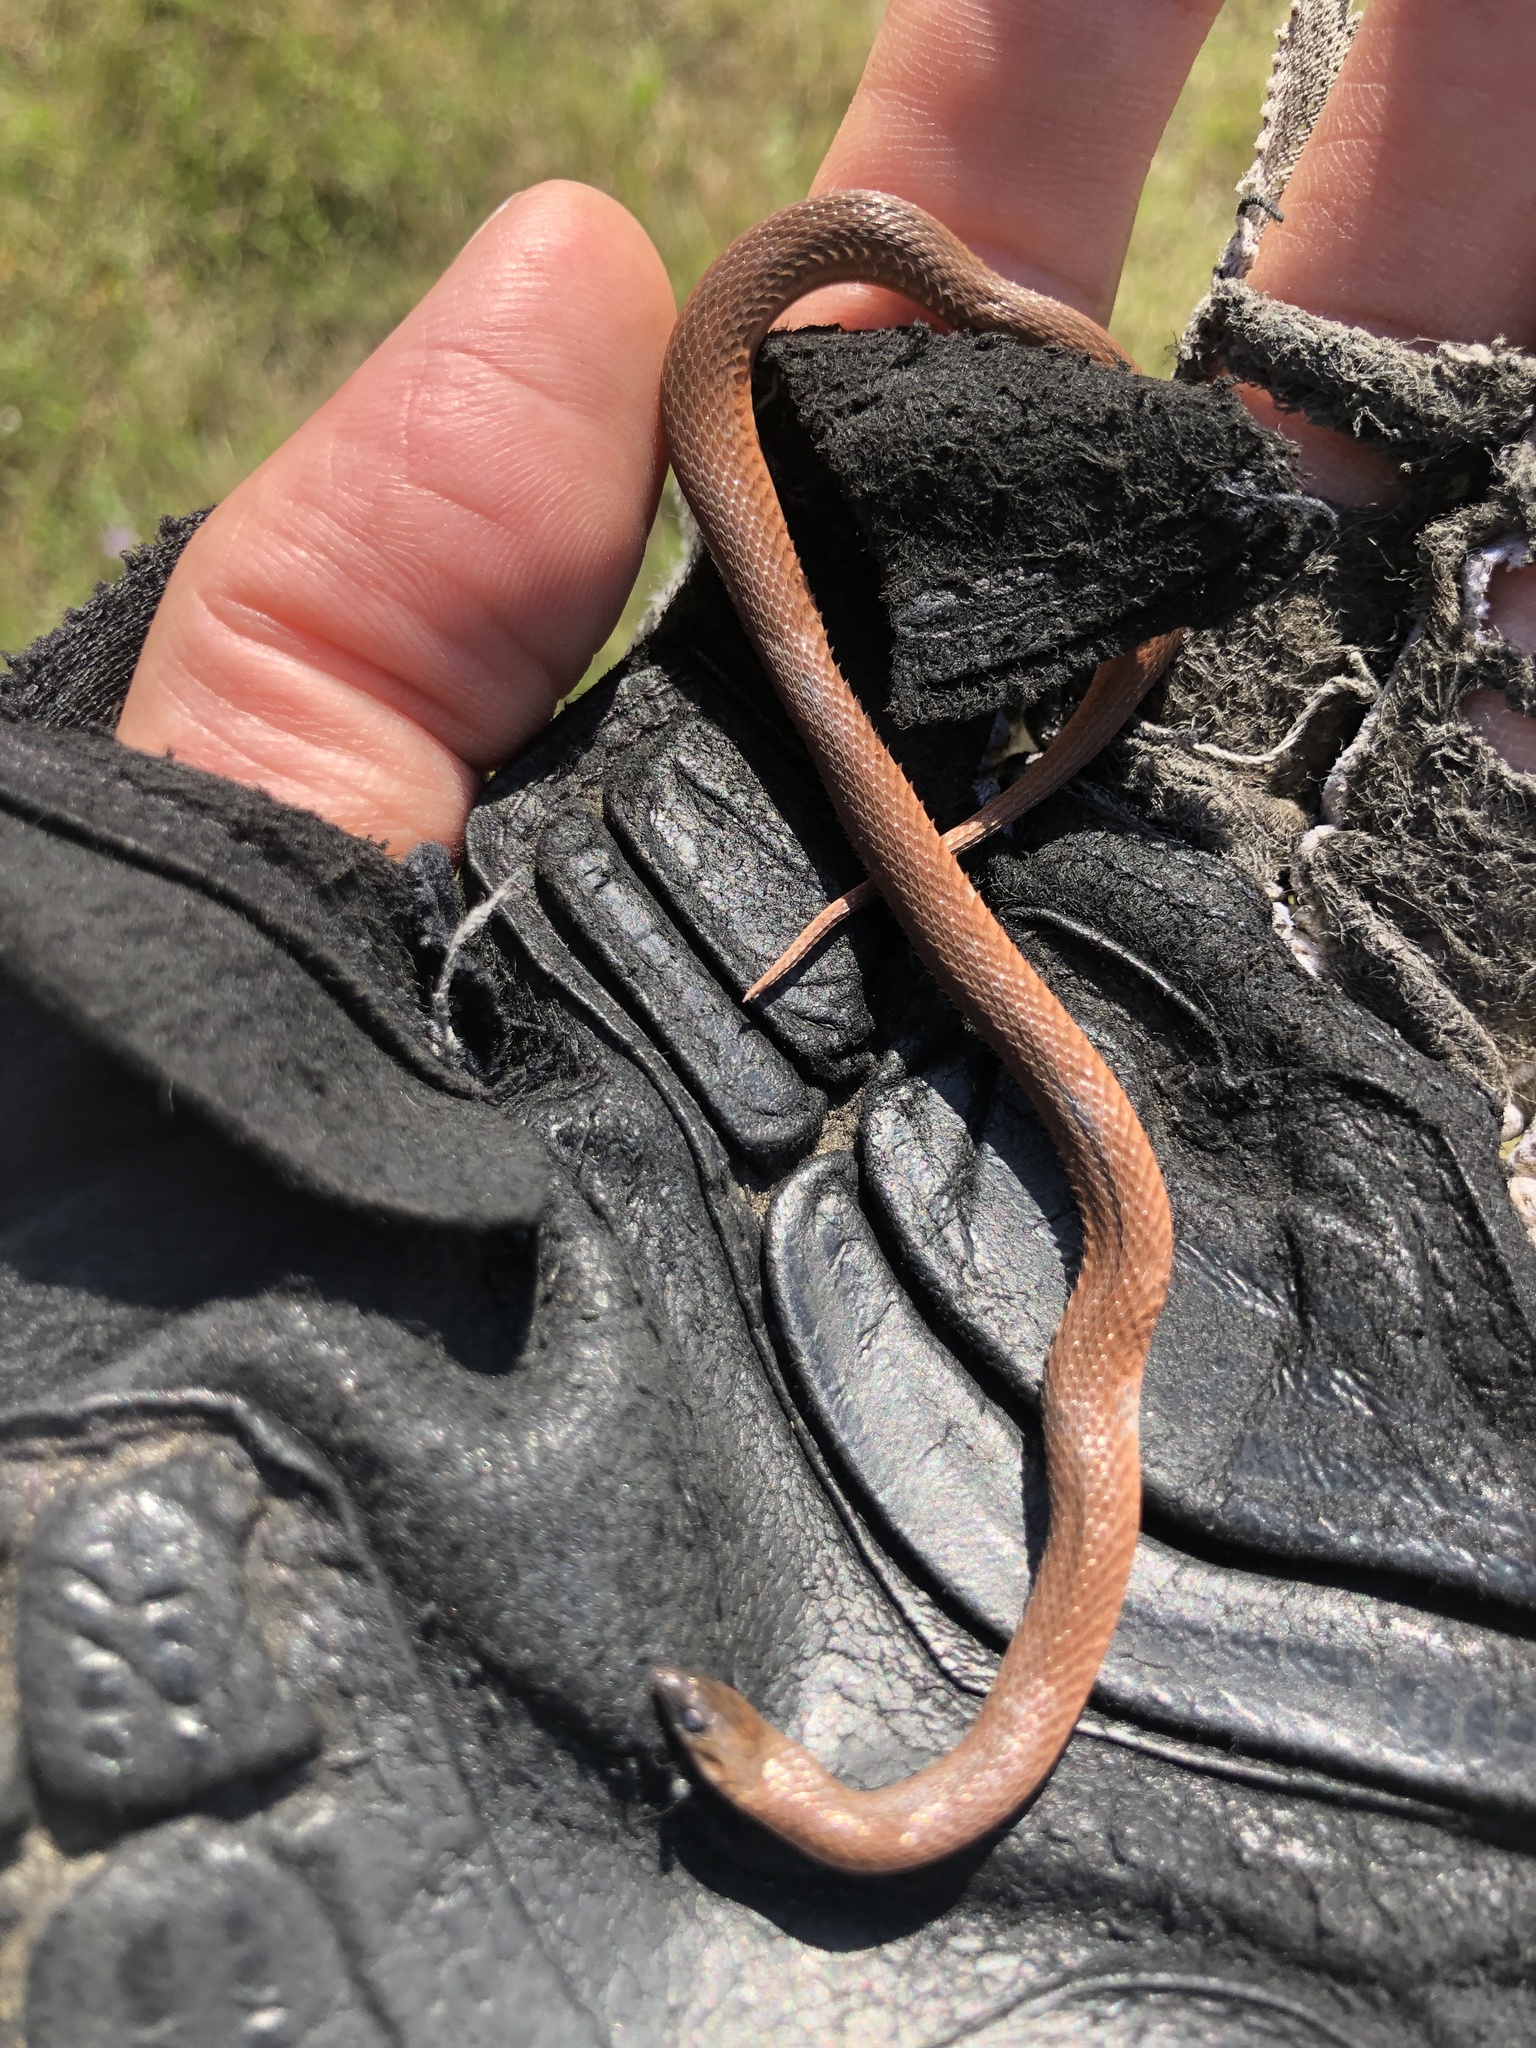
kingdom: Animalia
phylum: Chordata
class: Squamata
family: Colubridae
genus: Haldea
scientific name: Haldea striatula
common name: Rough earth snake
